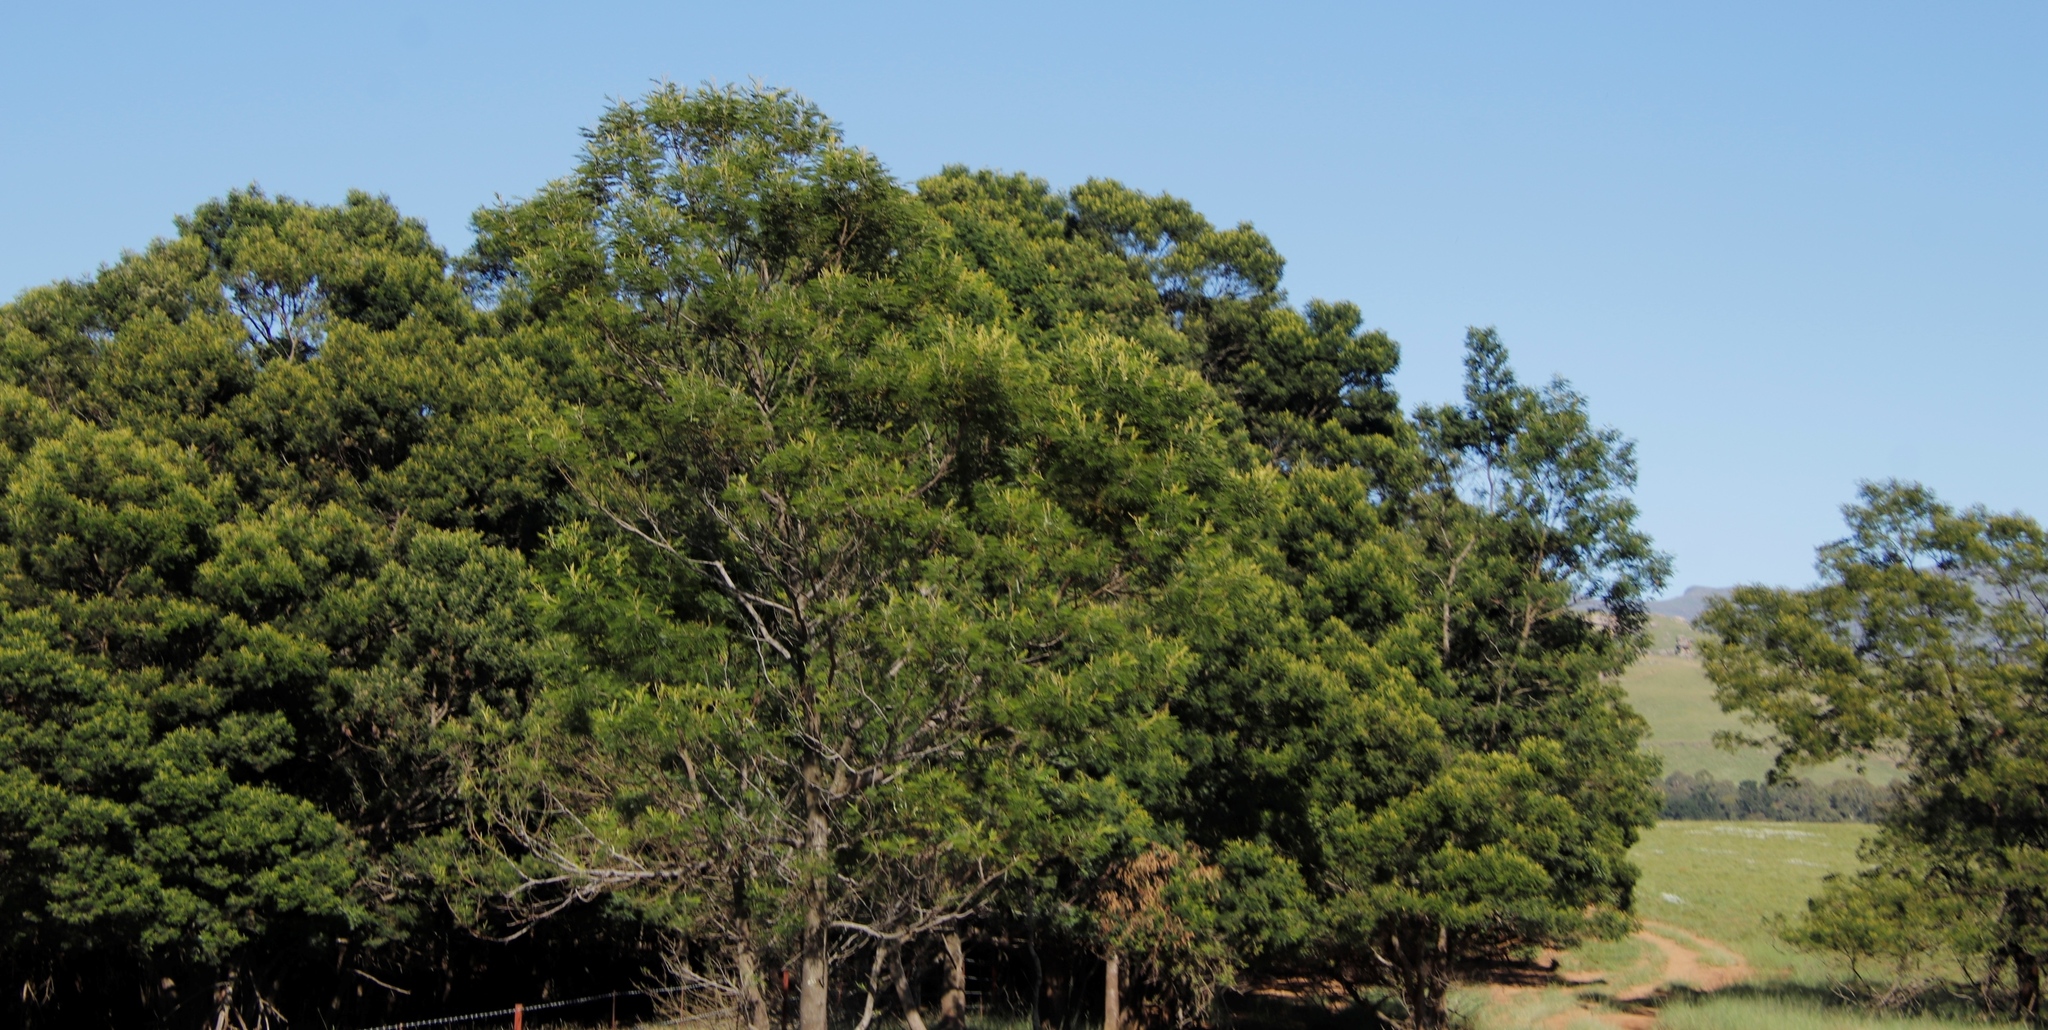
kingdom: Plantae
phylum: Tracheophyta
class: Magnoliopsida
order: Fabales
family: Fabaceae
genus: Acacia
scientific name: Acacia mearnsii
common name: Black wattle
